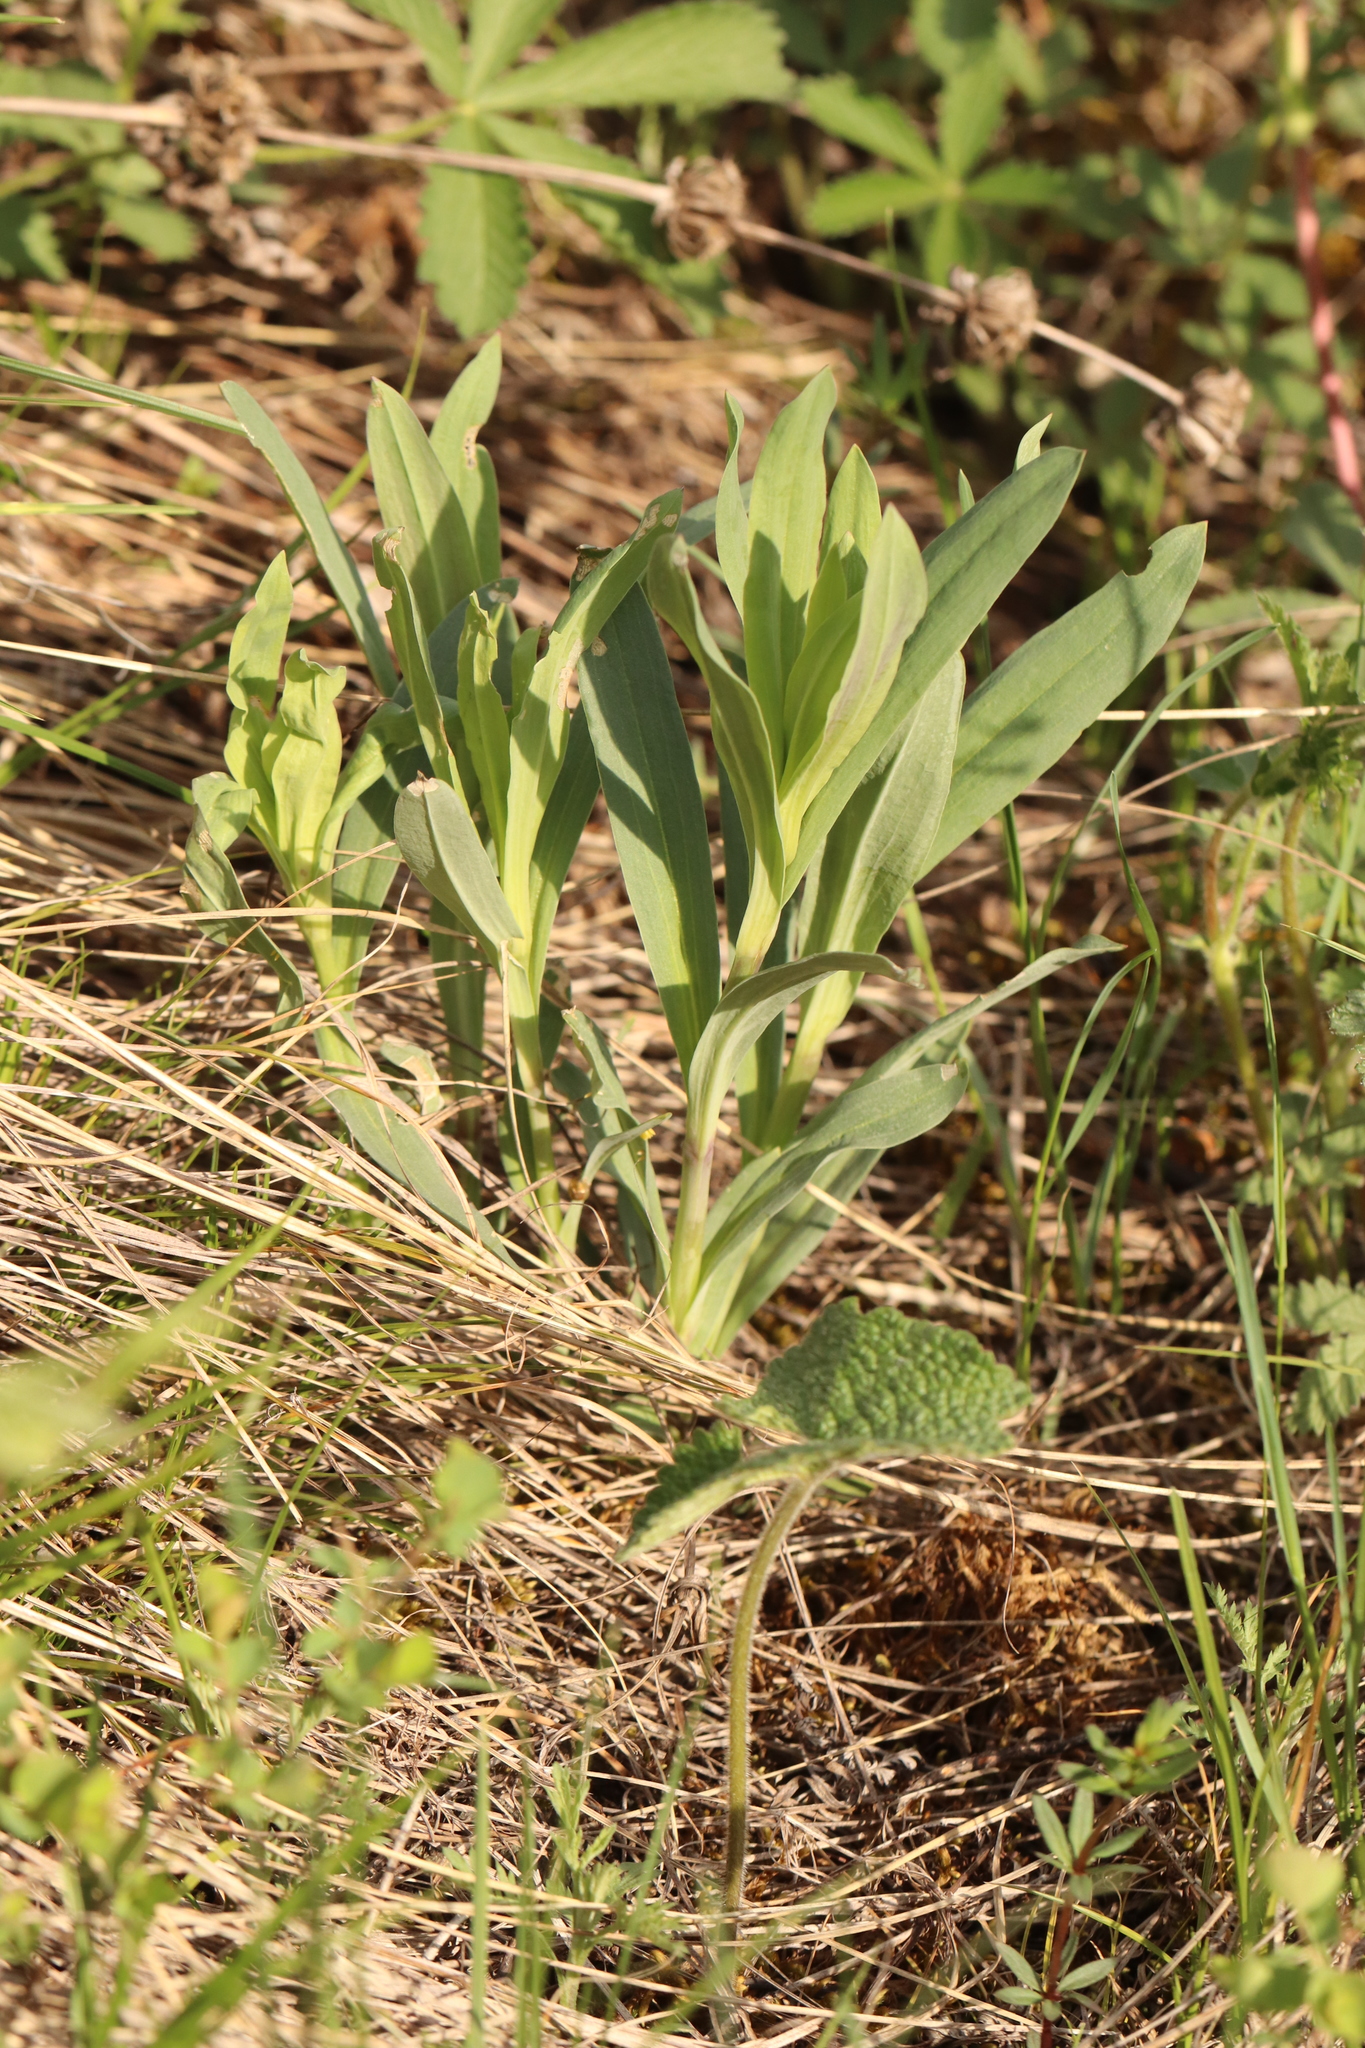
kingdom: Plantae
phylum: Tracheophyta
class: Magnoliopsida
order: Caryophyllales
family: Caryophyllaceae
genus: Gypsophila
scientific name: Gypsophila altissima
